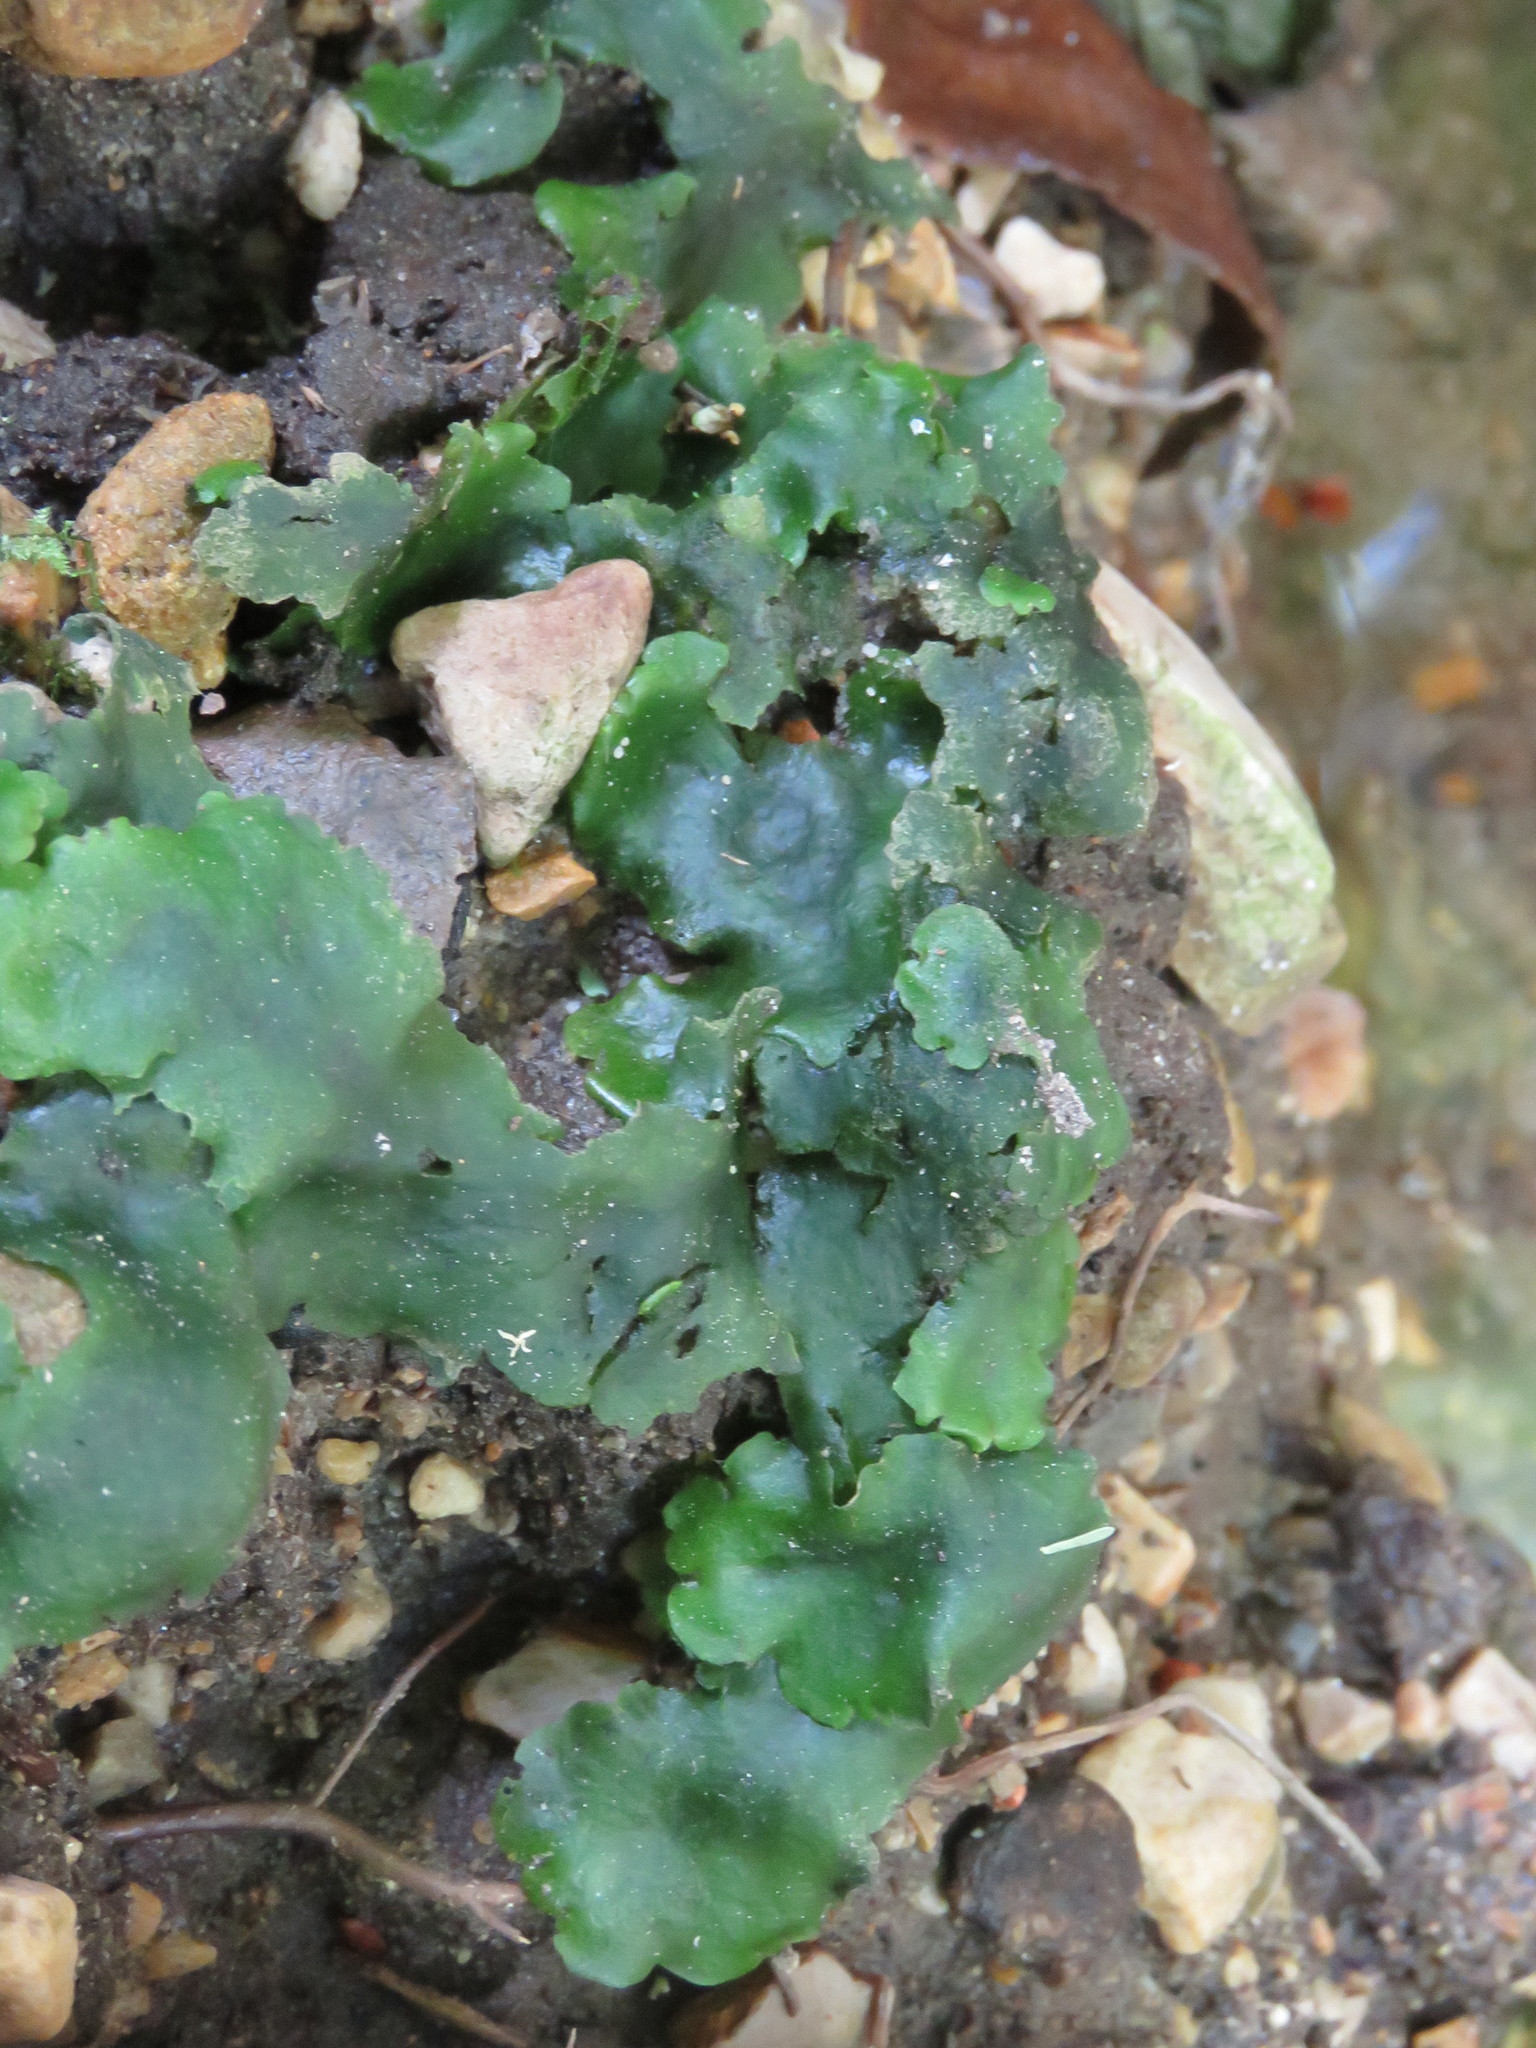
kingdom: Plantae
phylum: Marchantiophyta
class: Marchantiopsida
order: Marchantiales
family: Monocleaceae
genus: Monoclea
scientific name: Monoclea gottschei
